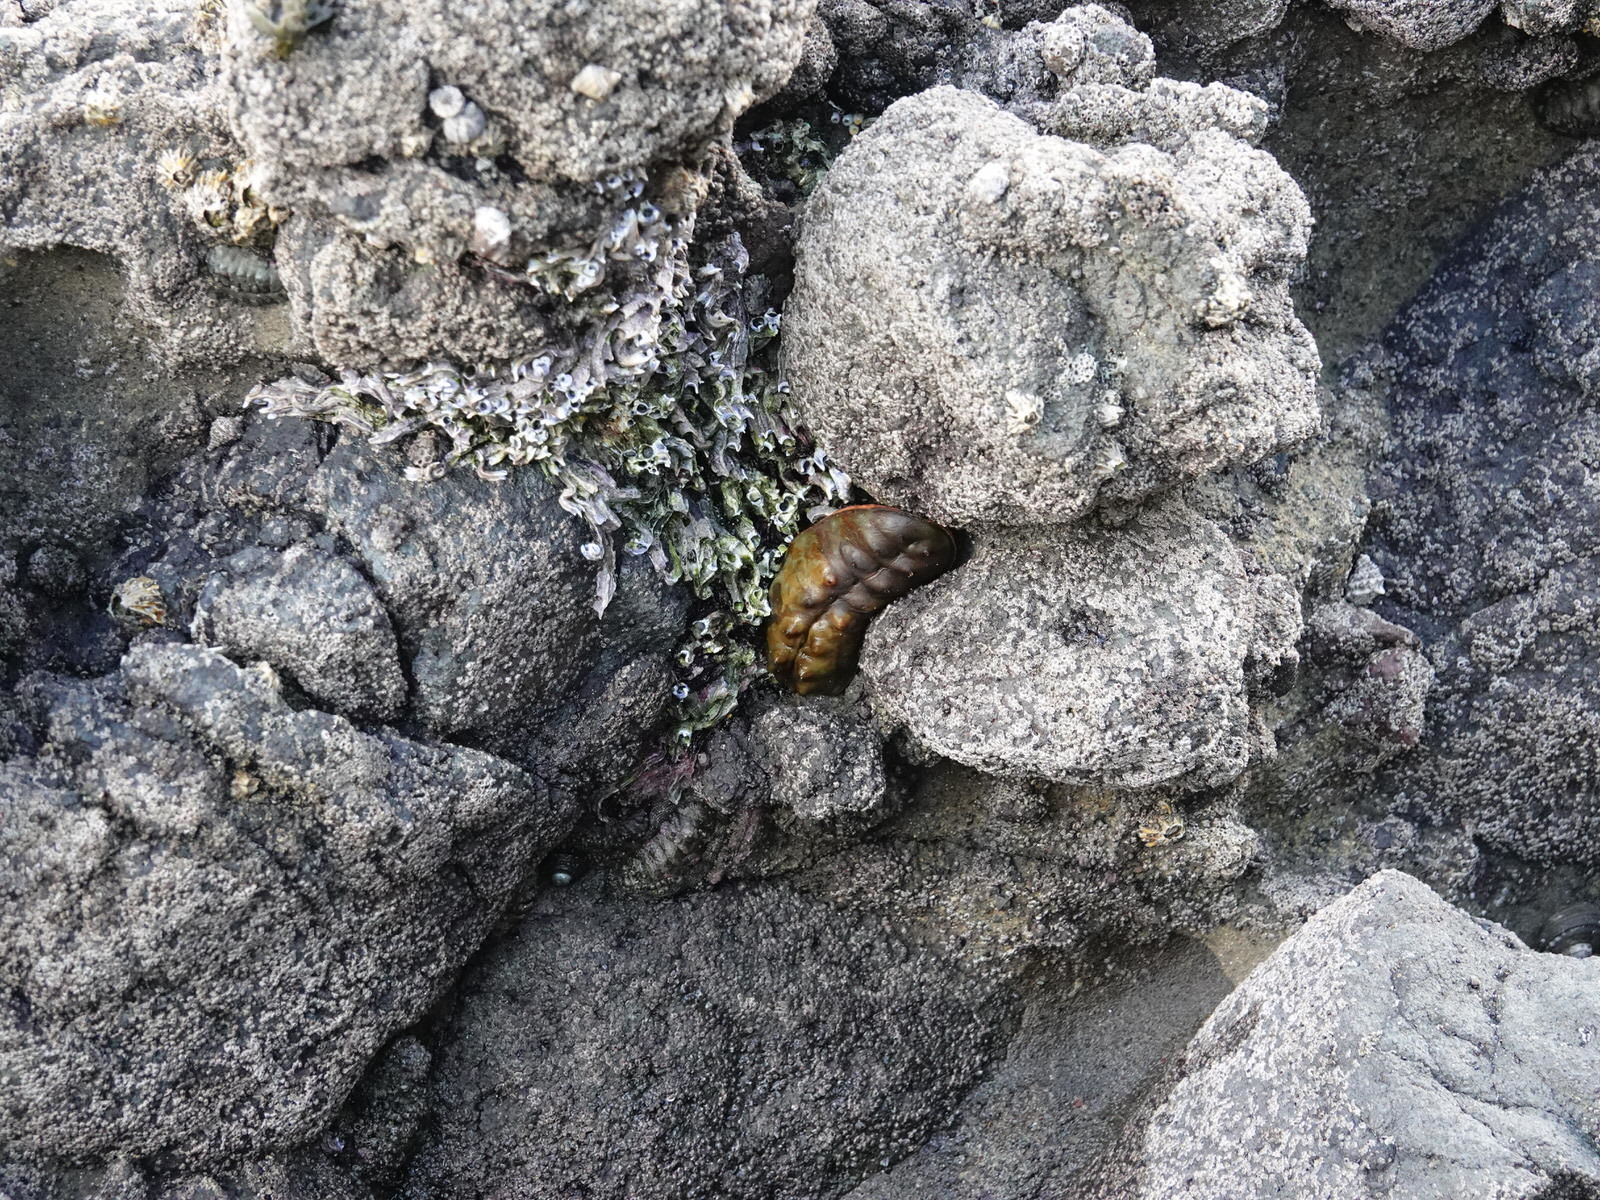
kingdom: Animalia
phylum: Mollusca
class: Polyplacophora
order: Chitonida
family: Acanthochitonidae
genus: Cryptoconchus
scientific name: Cryptoconchus porosus
